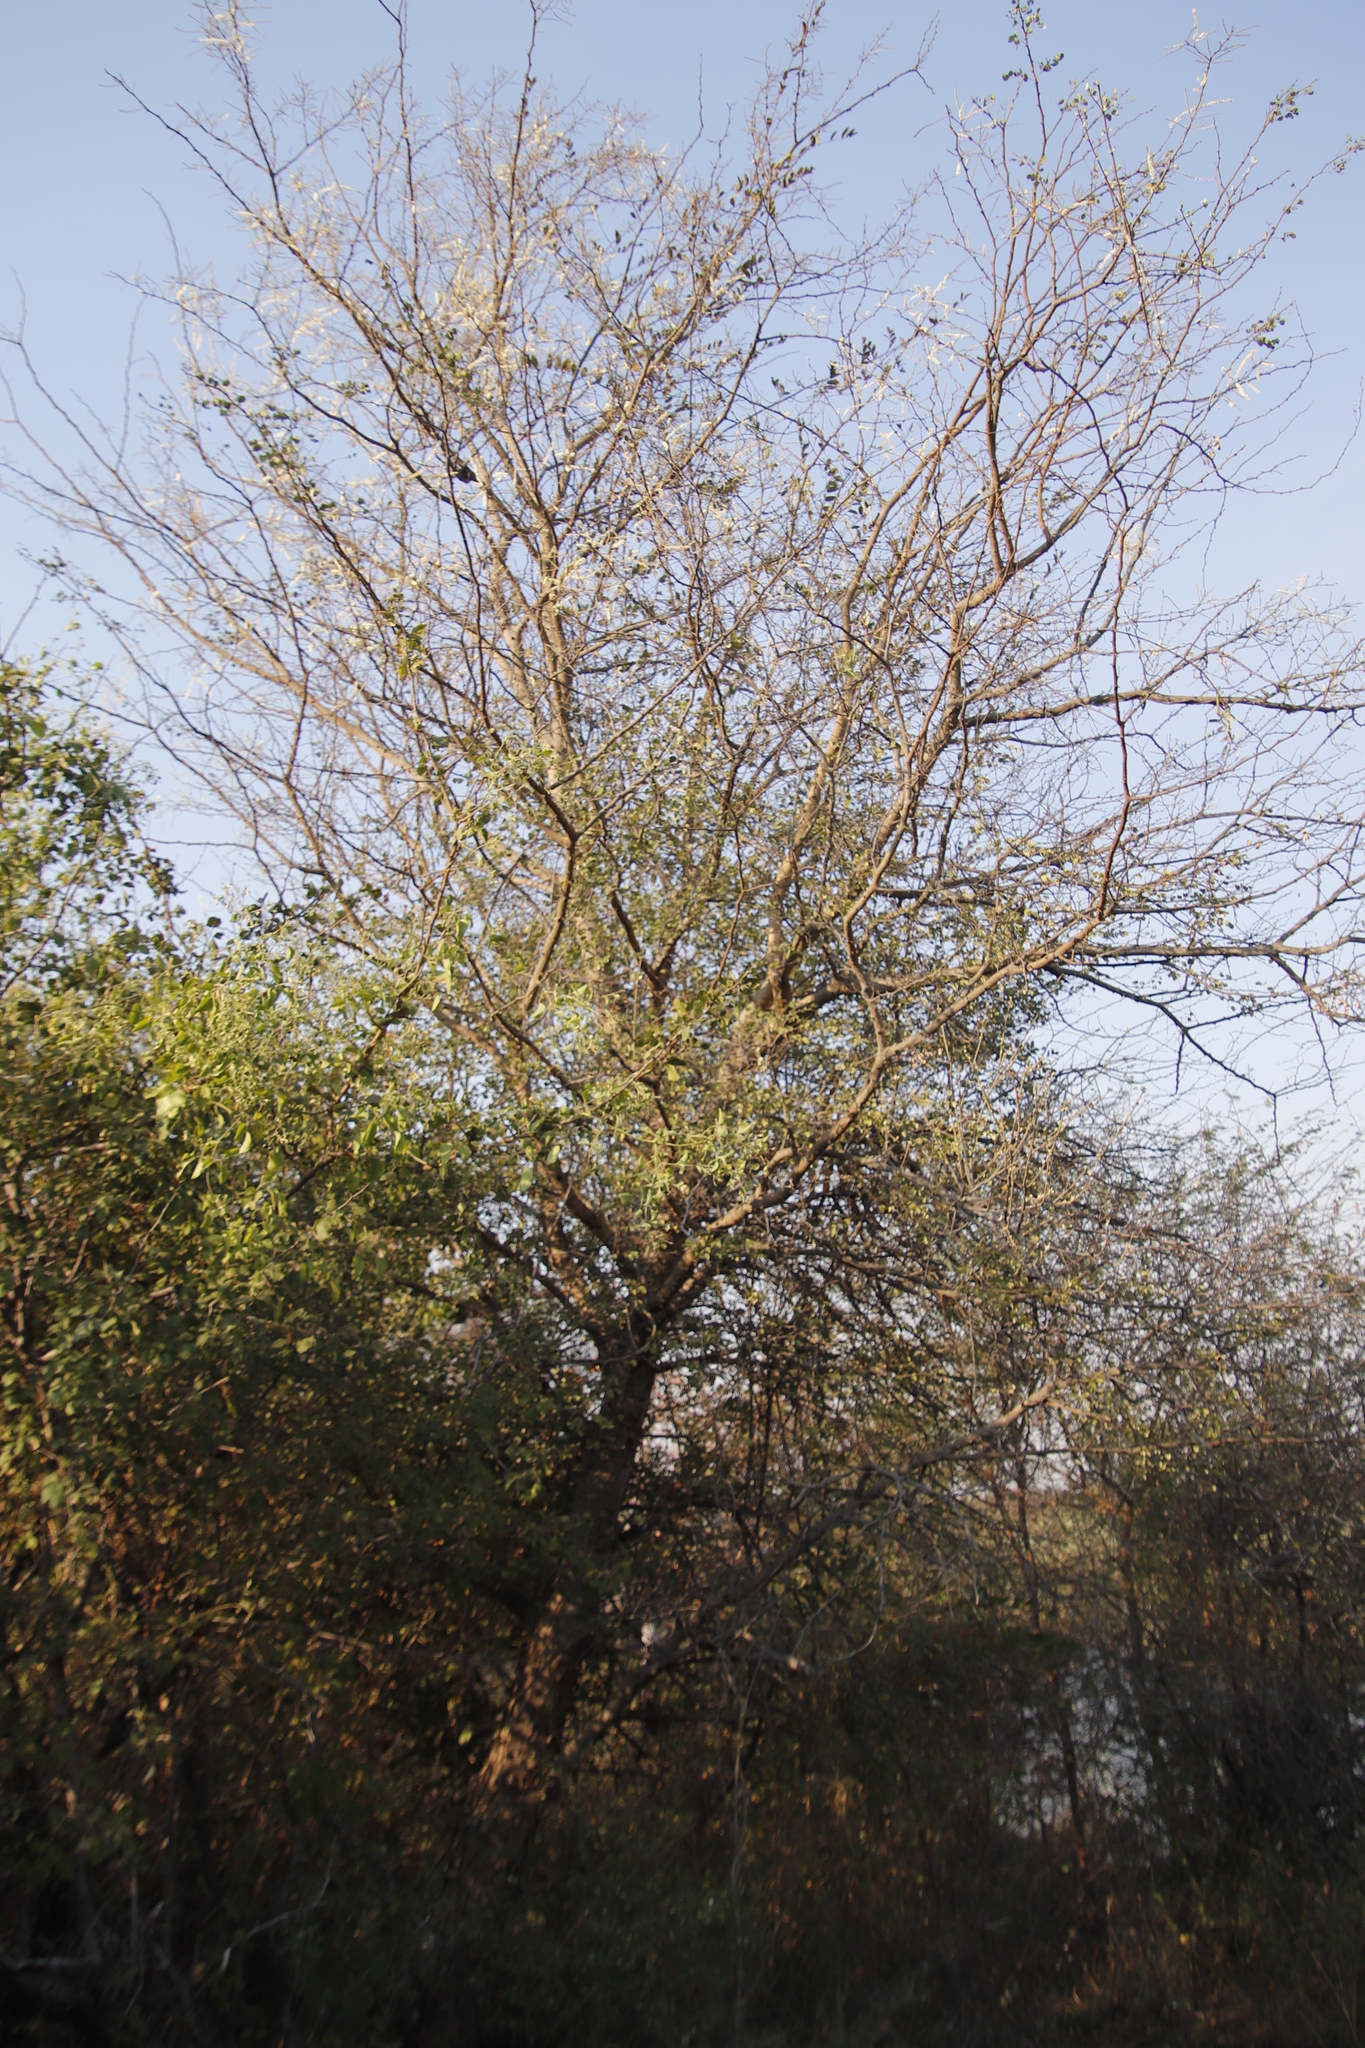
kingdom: Plantae
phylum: Tracheophyta
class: Magnoliopsida
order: Fabales
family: Fabaceae
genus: Senegalia
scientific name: Senegalia nigrescens
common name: Knobthorn
